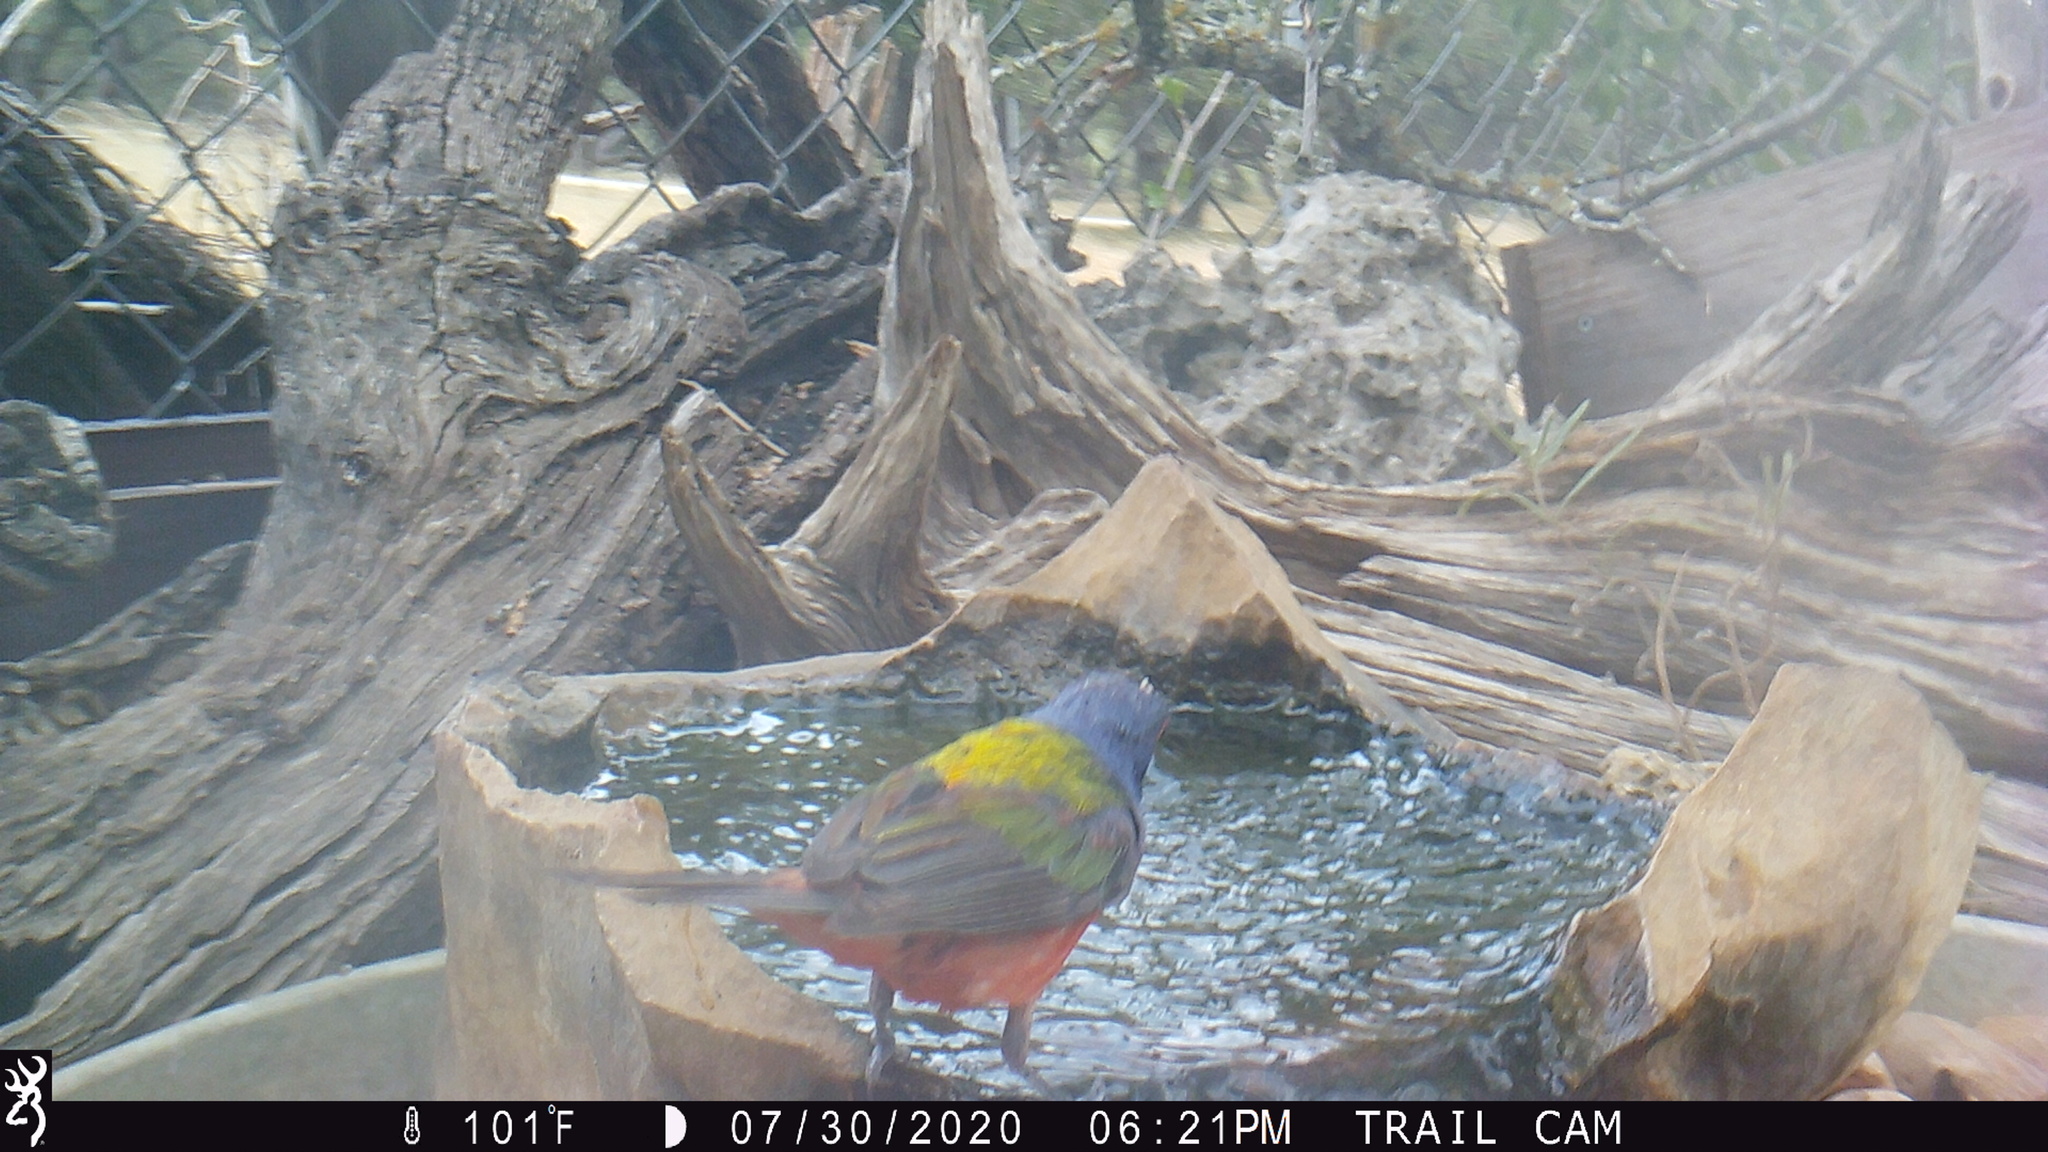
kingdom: Animalia
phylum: Chordata
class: Aves
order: Passeriformes
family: Cardinalidae
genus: Passerina
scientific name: Passerina ciris
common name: Painted bunting
